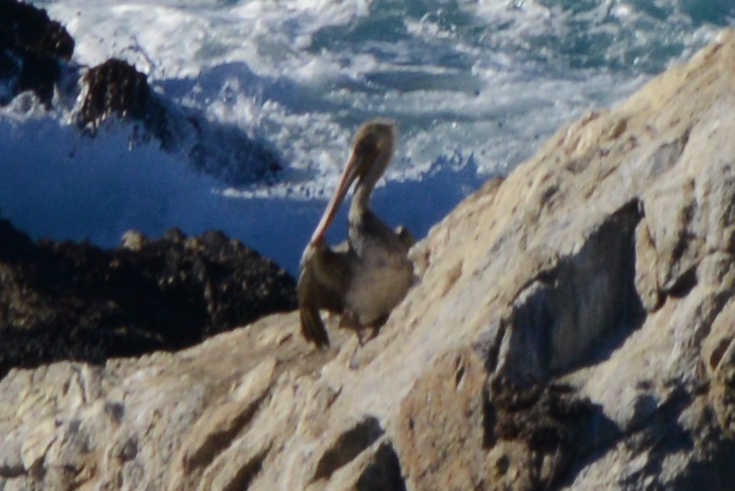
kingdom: Animalia
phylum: Chordata
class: Aves
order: Pelecaniformes
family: Pelecanidae
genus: Pelecanus
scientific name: Pelecanus occidentalis
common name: Brown pelican
